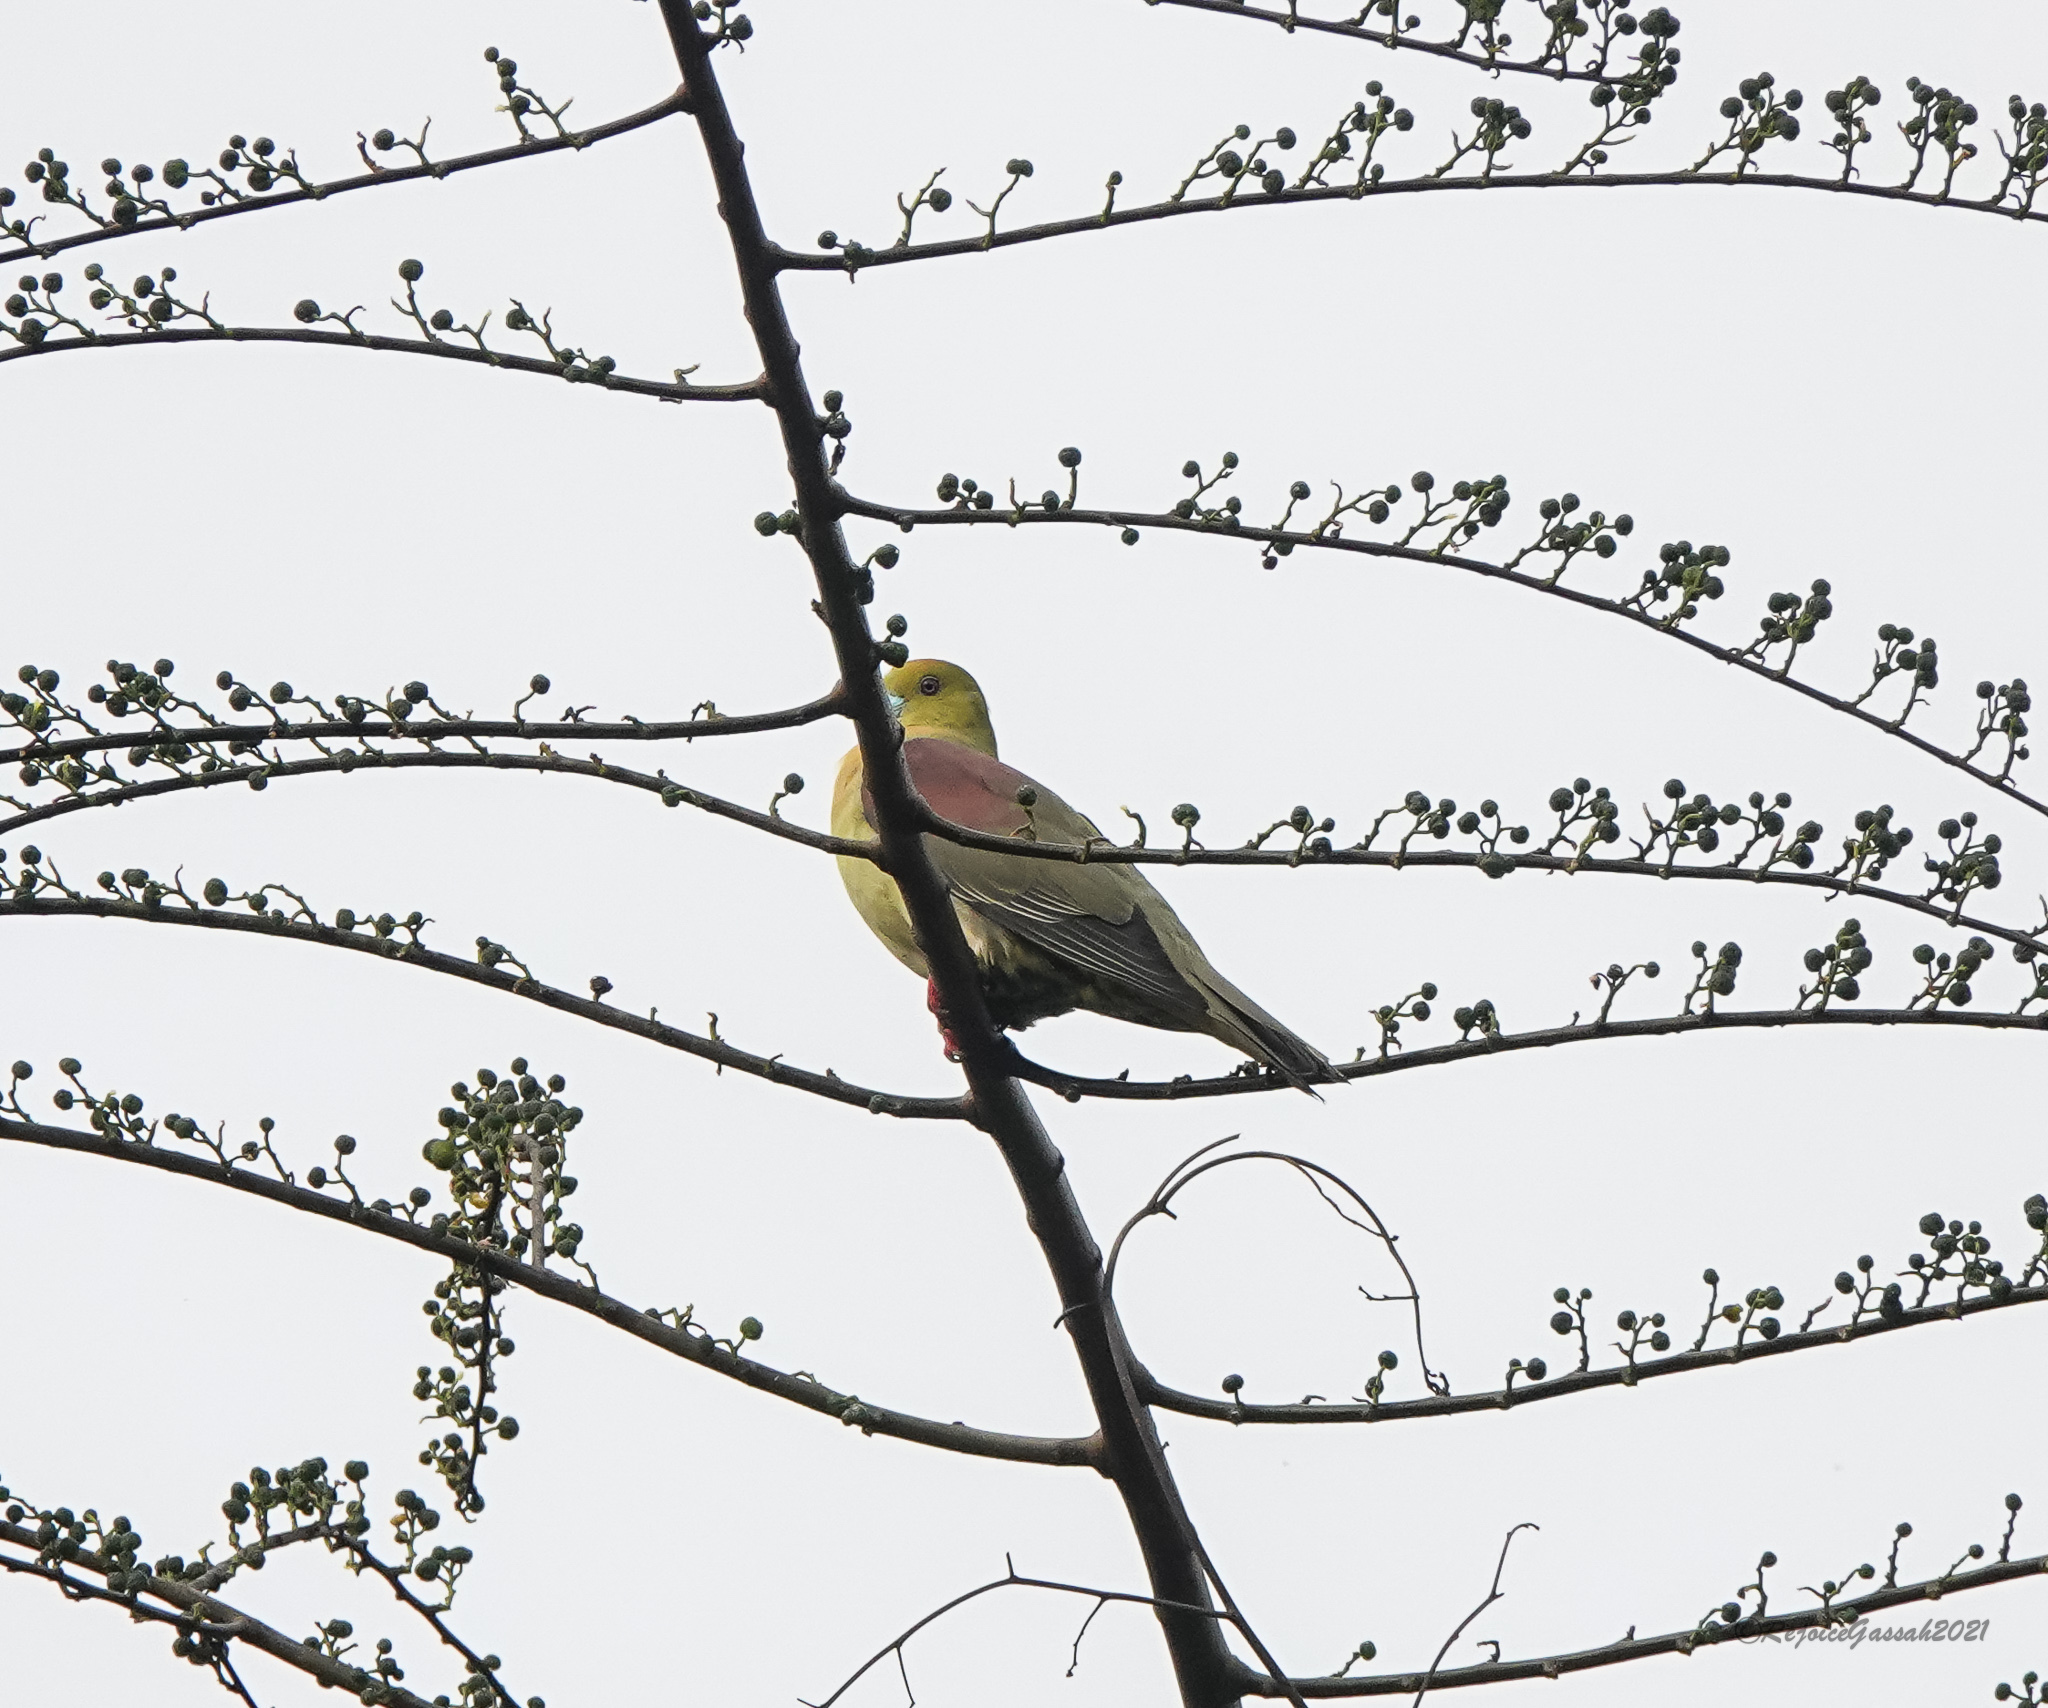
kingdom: Animalia
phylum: Chordata
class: Aves
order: Columbiformes
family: Columbidae
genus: Treron
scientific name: Treron sphenurus
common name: Wedge-tailed green pigeon
